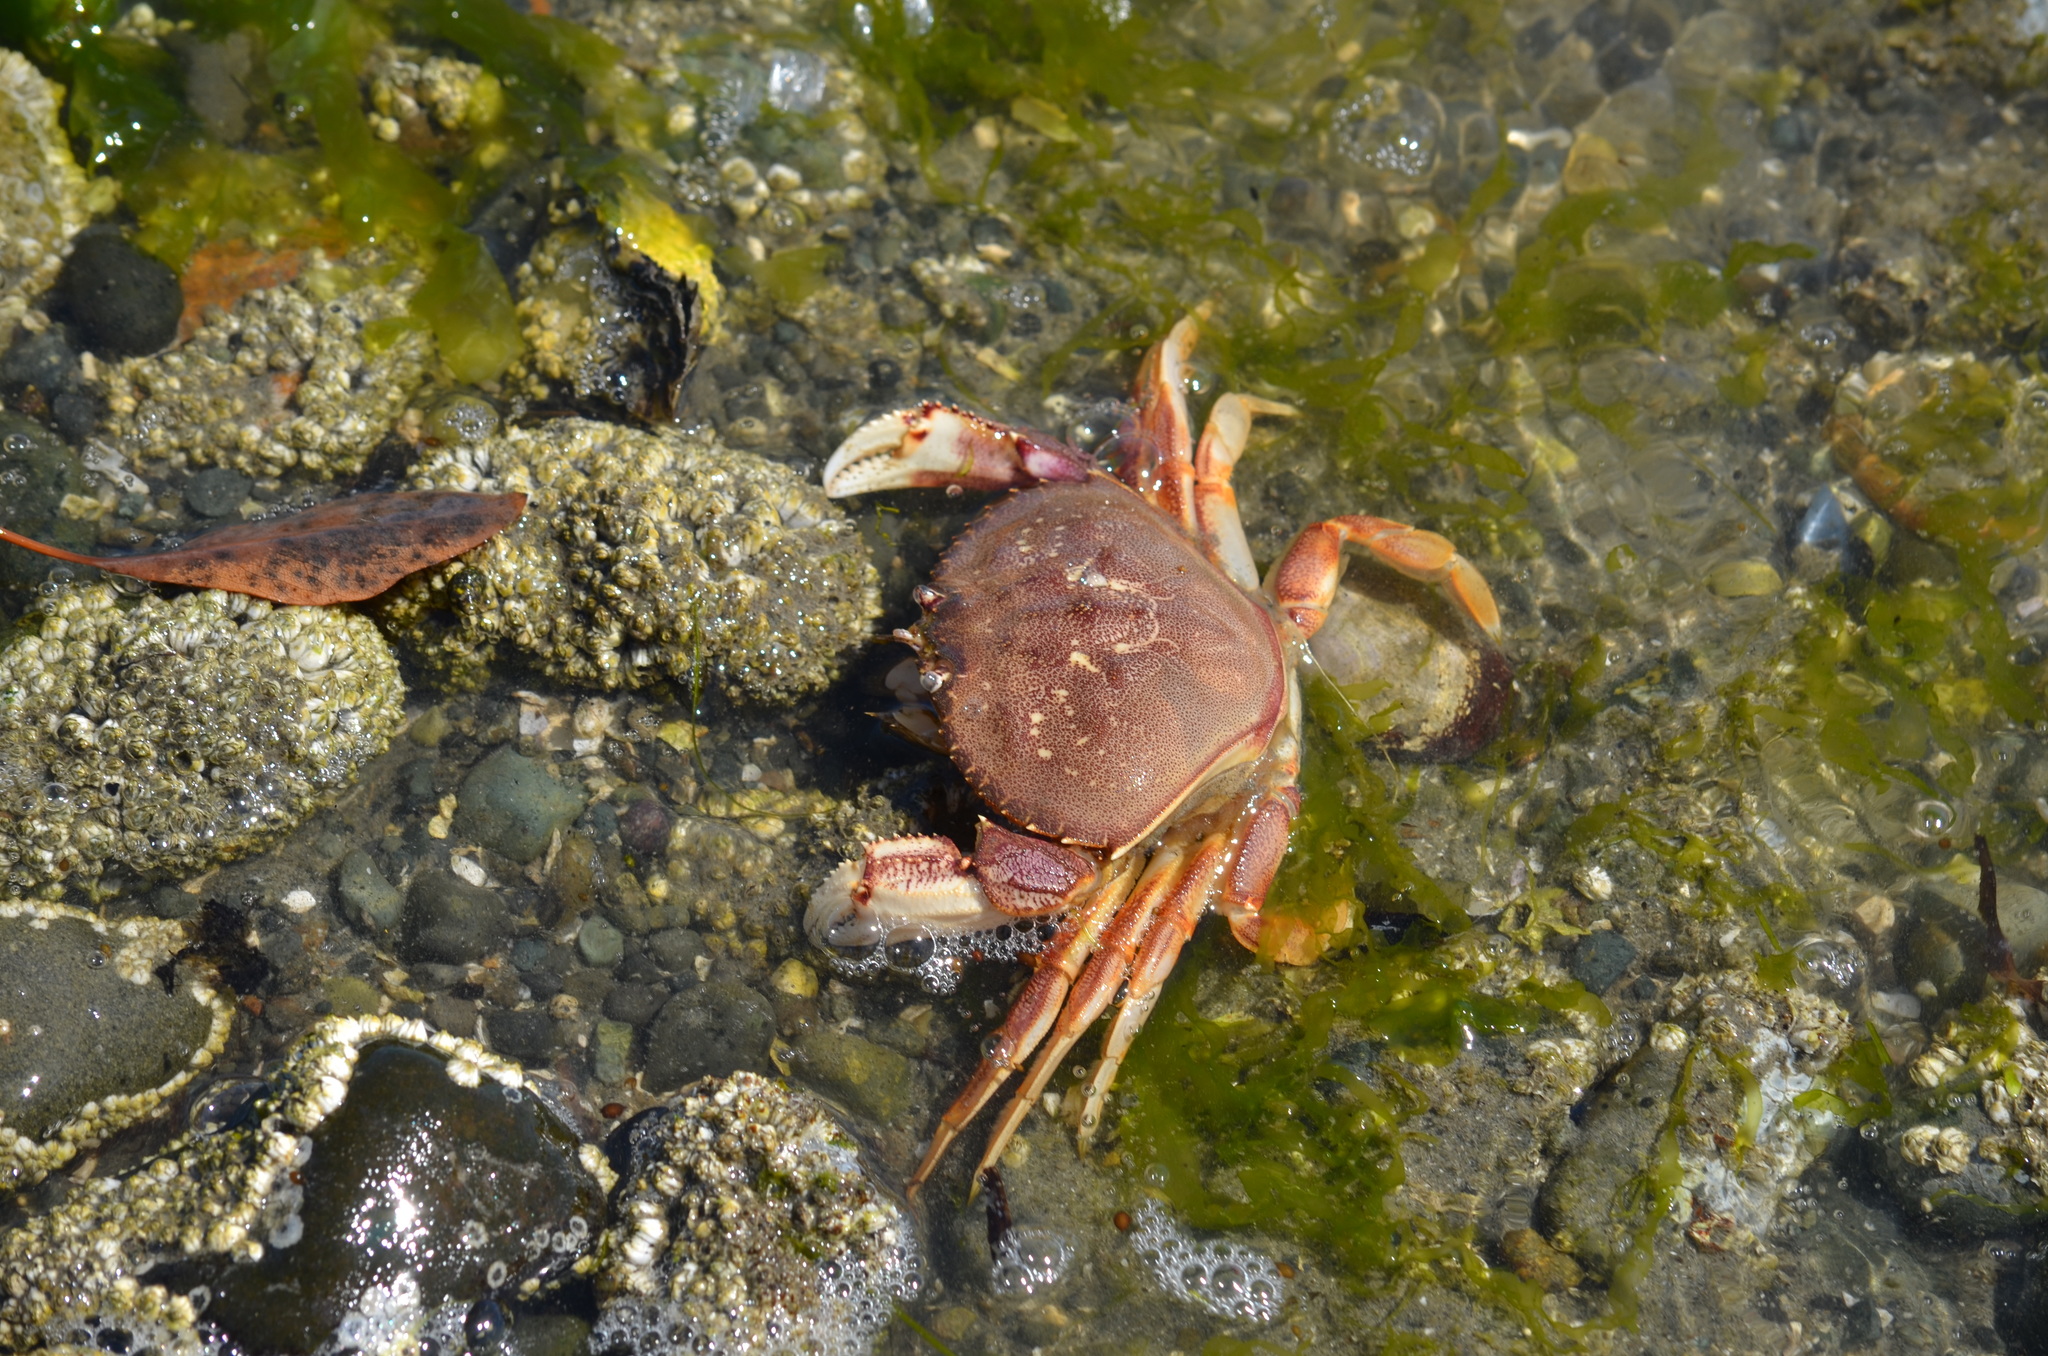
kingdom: Animalia
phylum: Arthropoda
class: Malacostraca
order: Decapoda
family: Cancridae
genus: Metacarcinus
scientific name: Metacarcinus magister
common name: Californian crab
